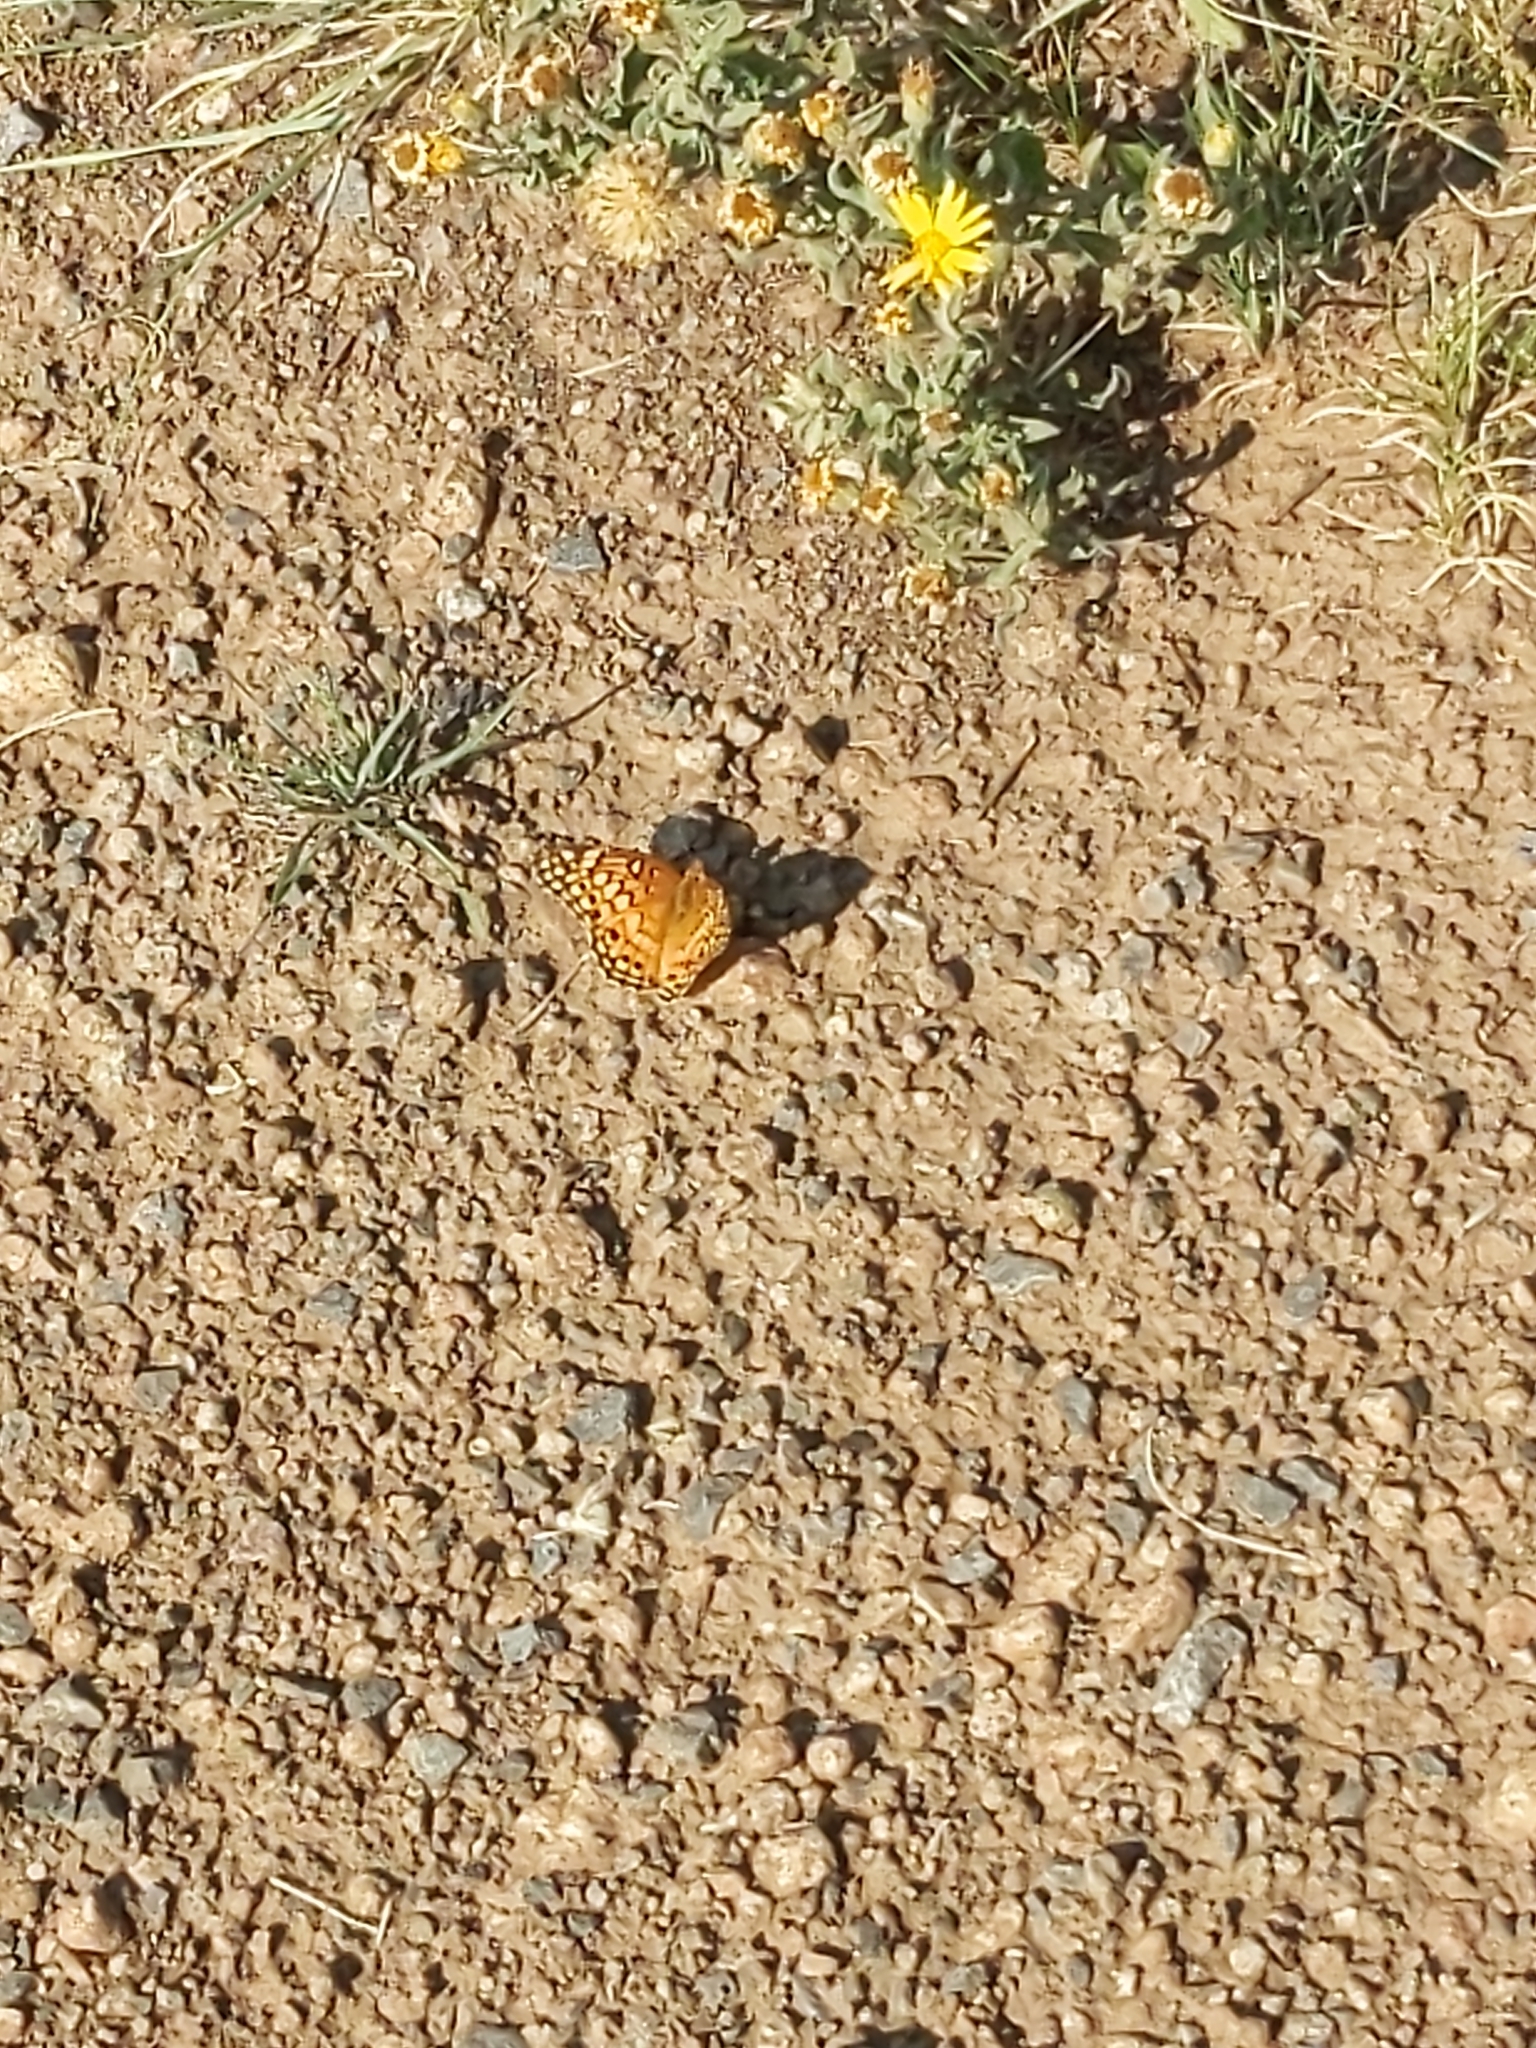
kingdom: Animalia
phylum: Arthropoda
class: Insecta
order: Lepidoptera
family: Nymphalidae
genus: Euptoieta
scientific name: Euptoieta claudia
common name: Variegated fritillary
